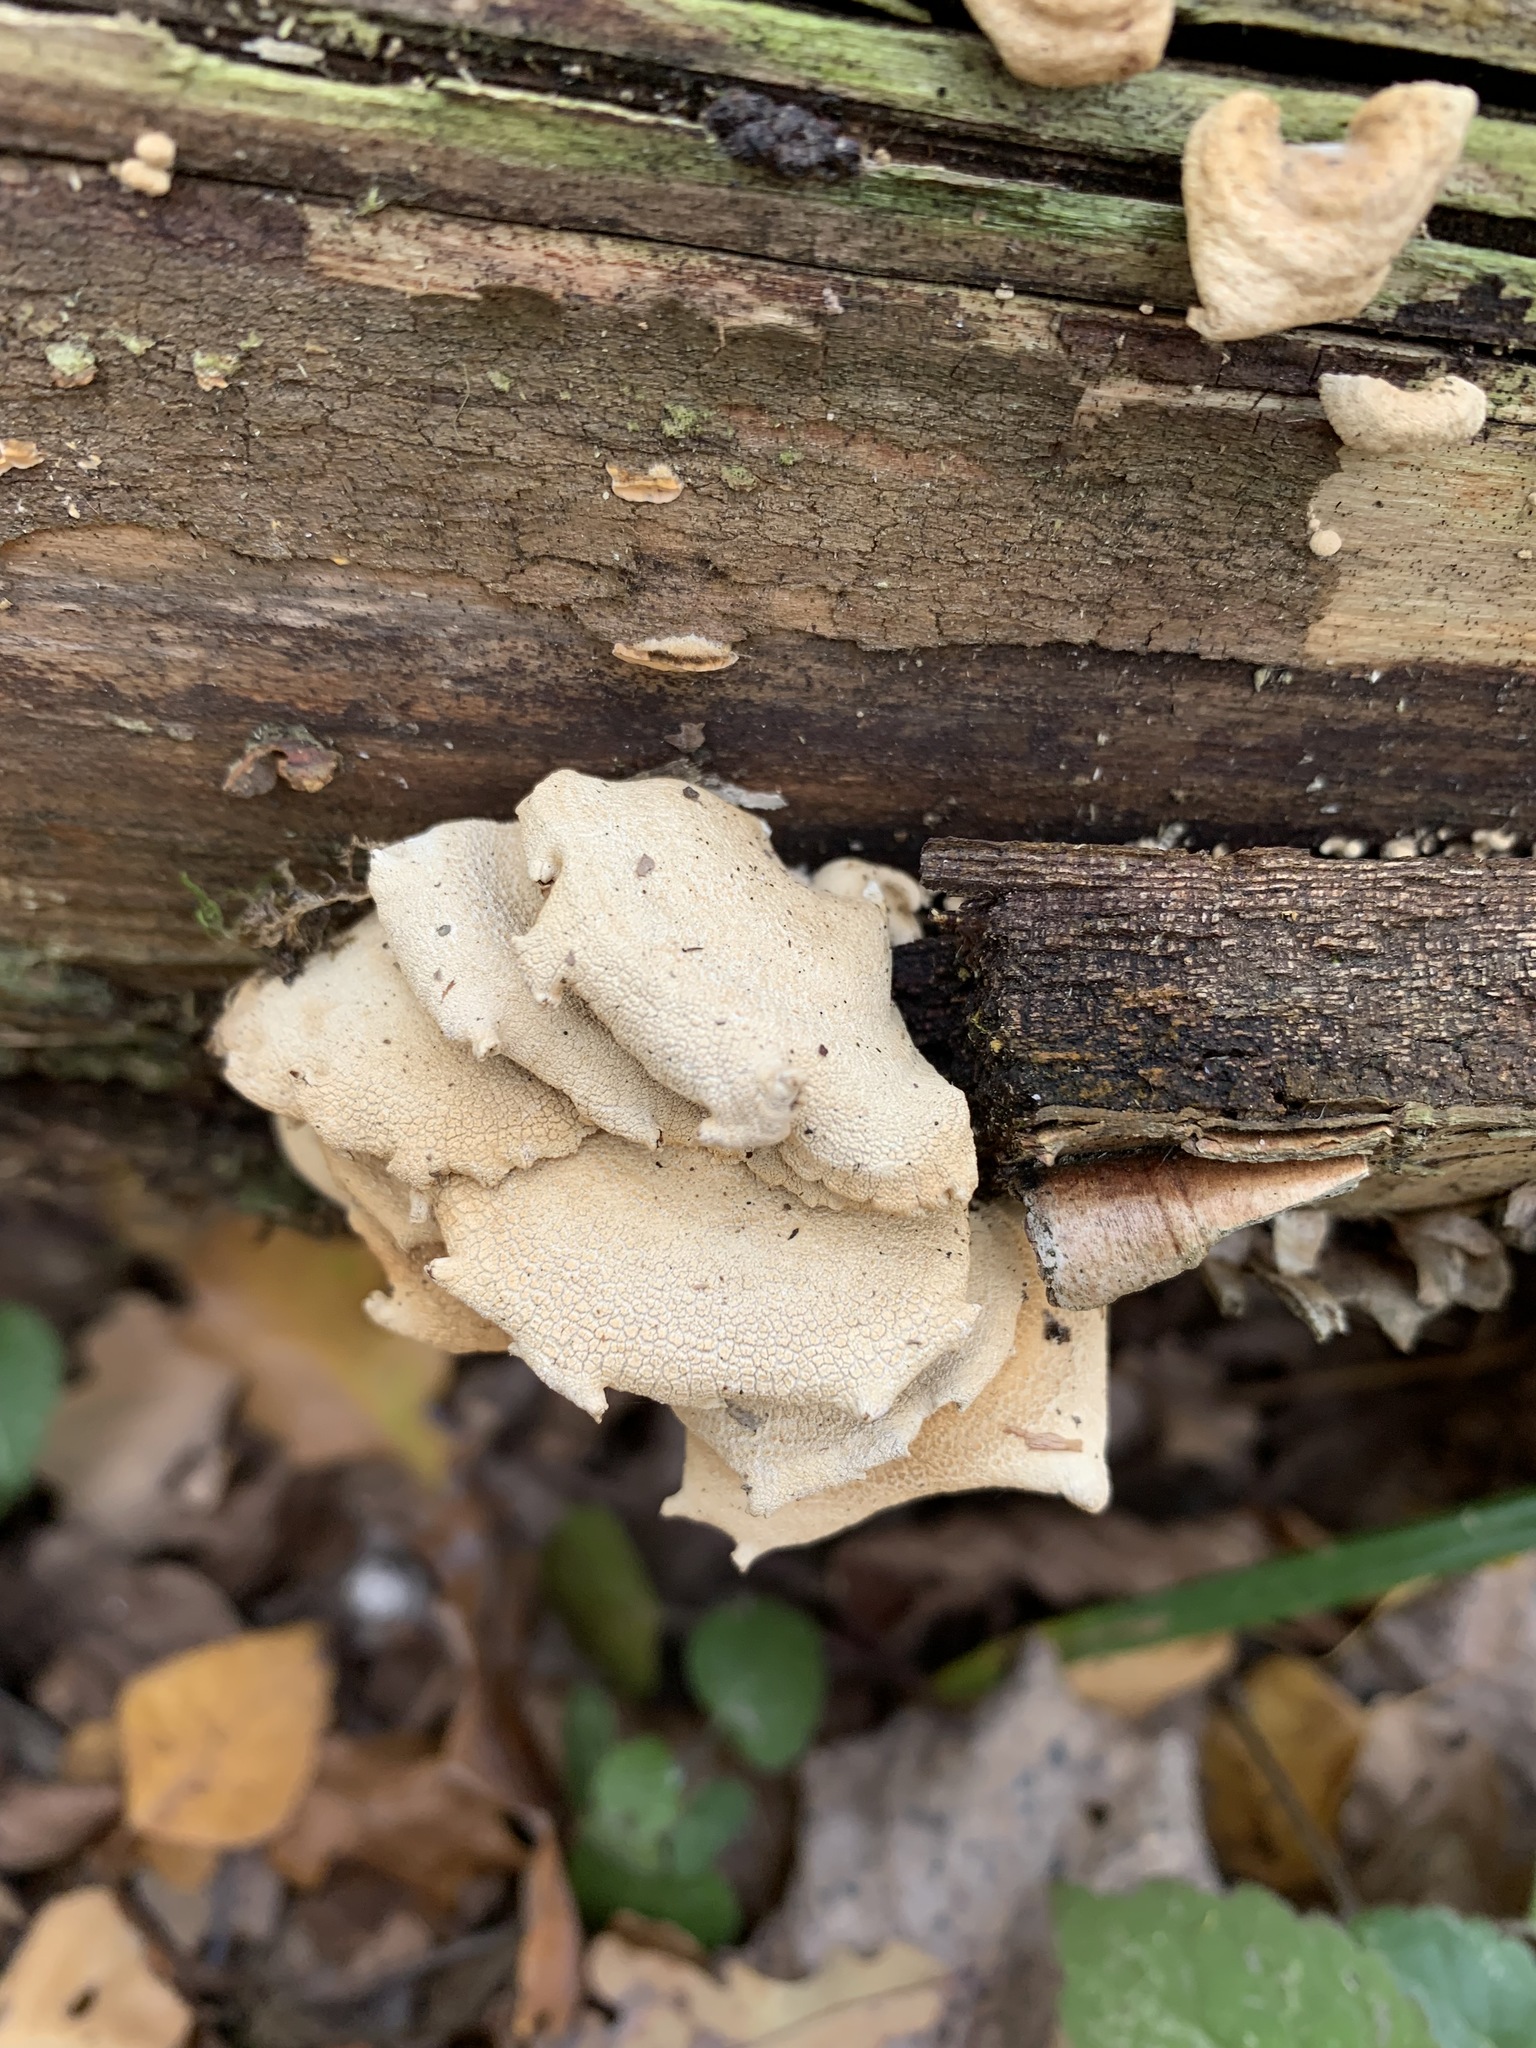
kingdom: Fungi
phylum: Basidiomycota
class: Agaricomycetes
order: Agaricales
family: Mycenaceae
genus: Panellus
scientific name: Panellus stipticus
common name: Bitter oysterling
